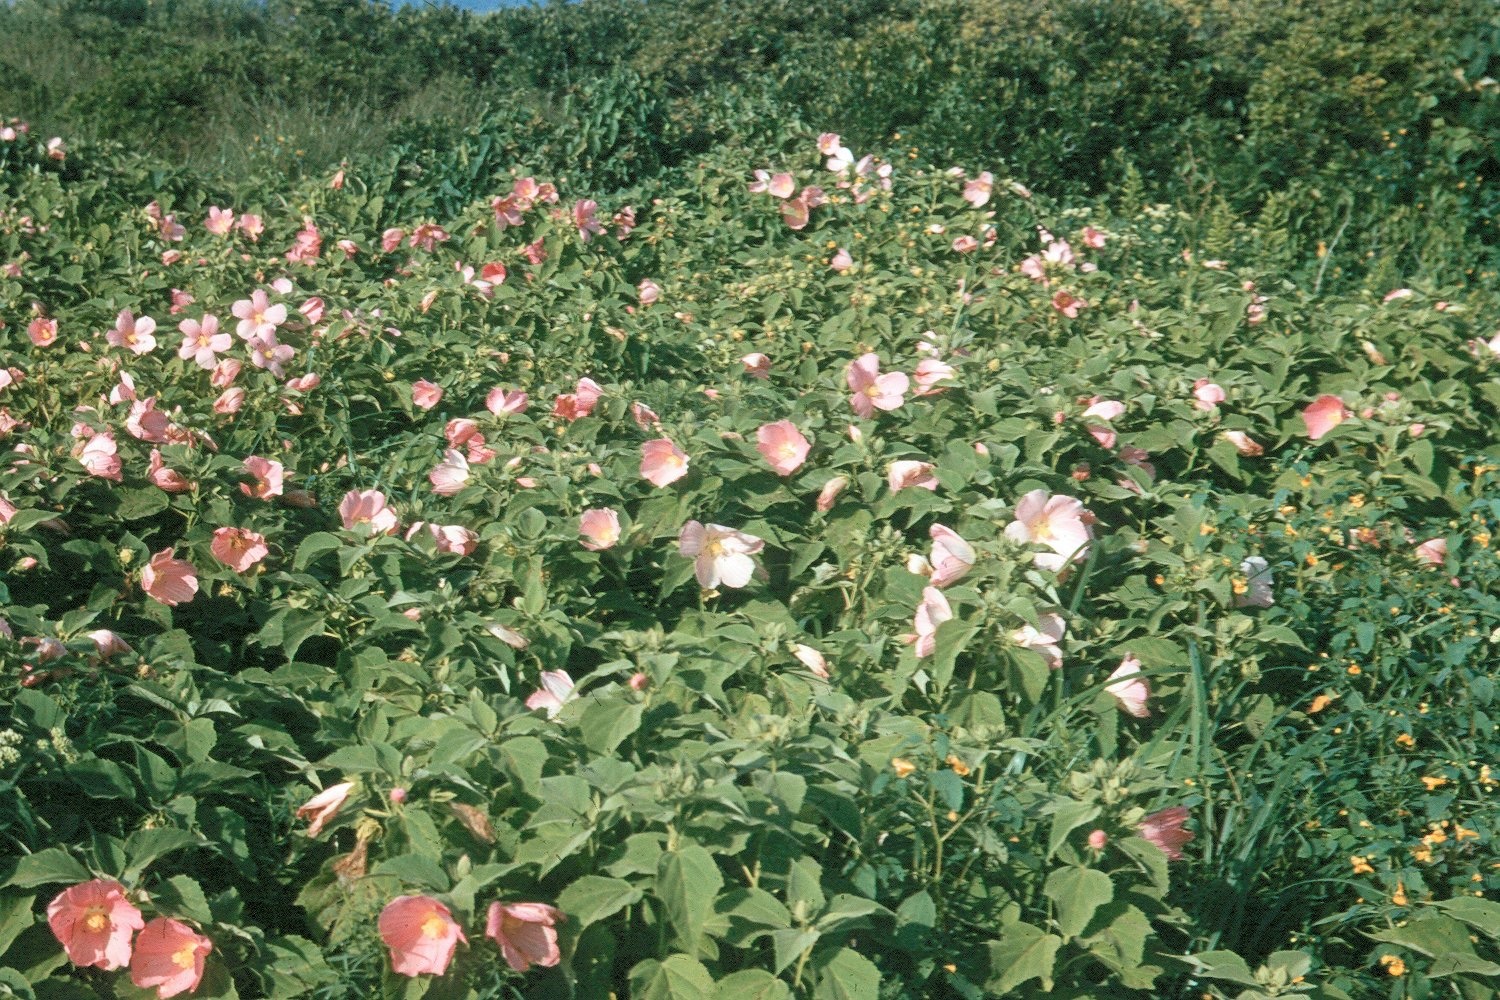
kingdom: Plantae
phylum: Tracheophyta
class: Magnoliopsida
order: Malvales
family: Malvaceae
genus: Hibiscus
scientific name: Hibiscus moscheutos
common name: Common rose-mallow
